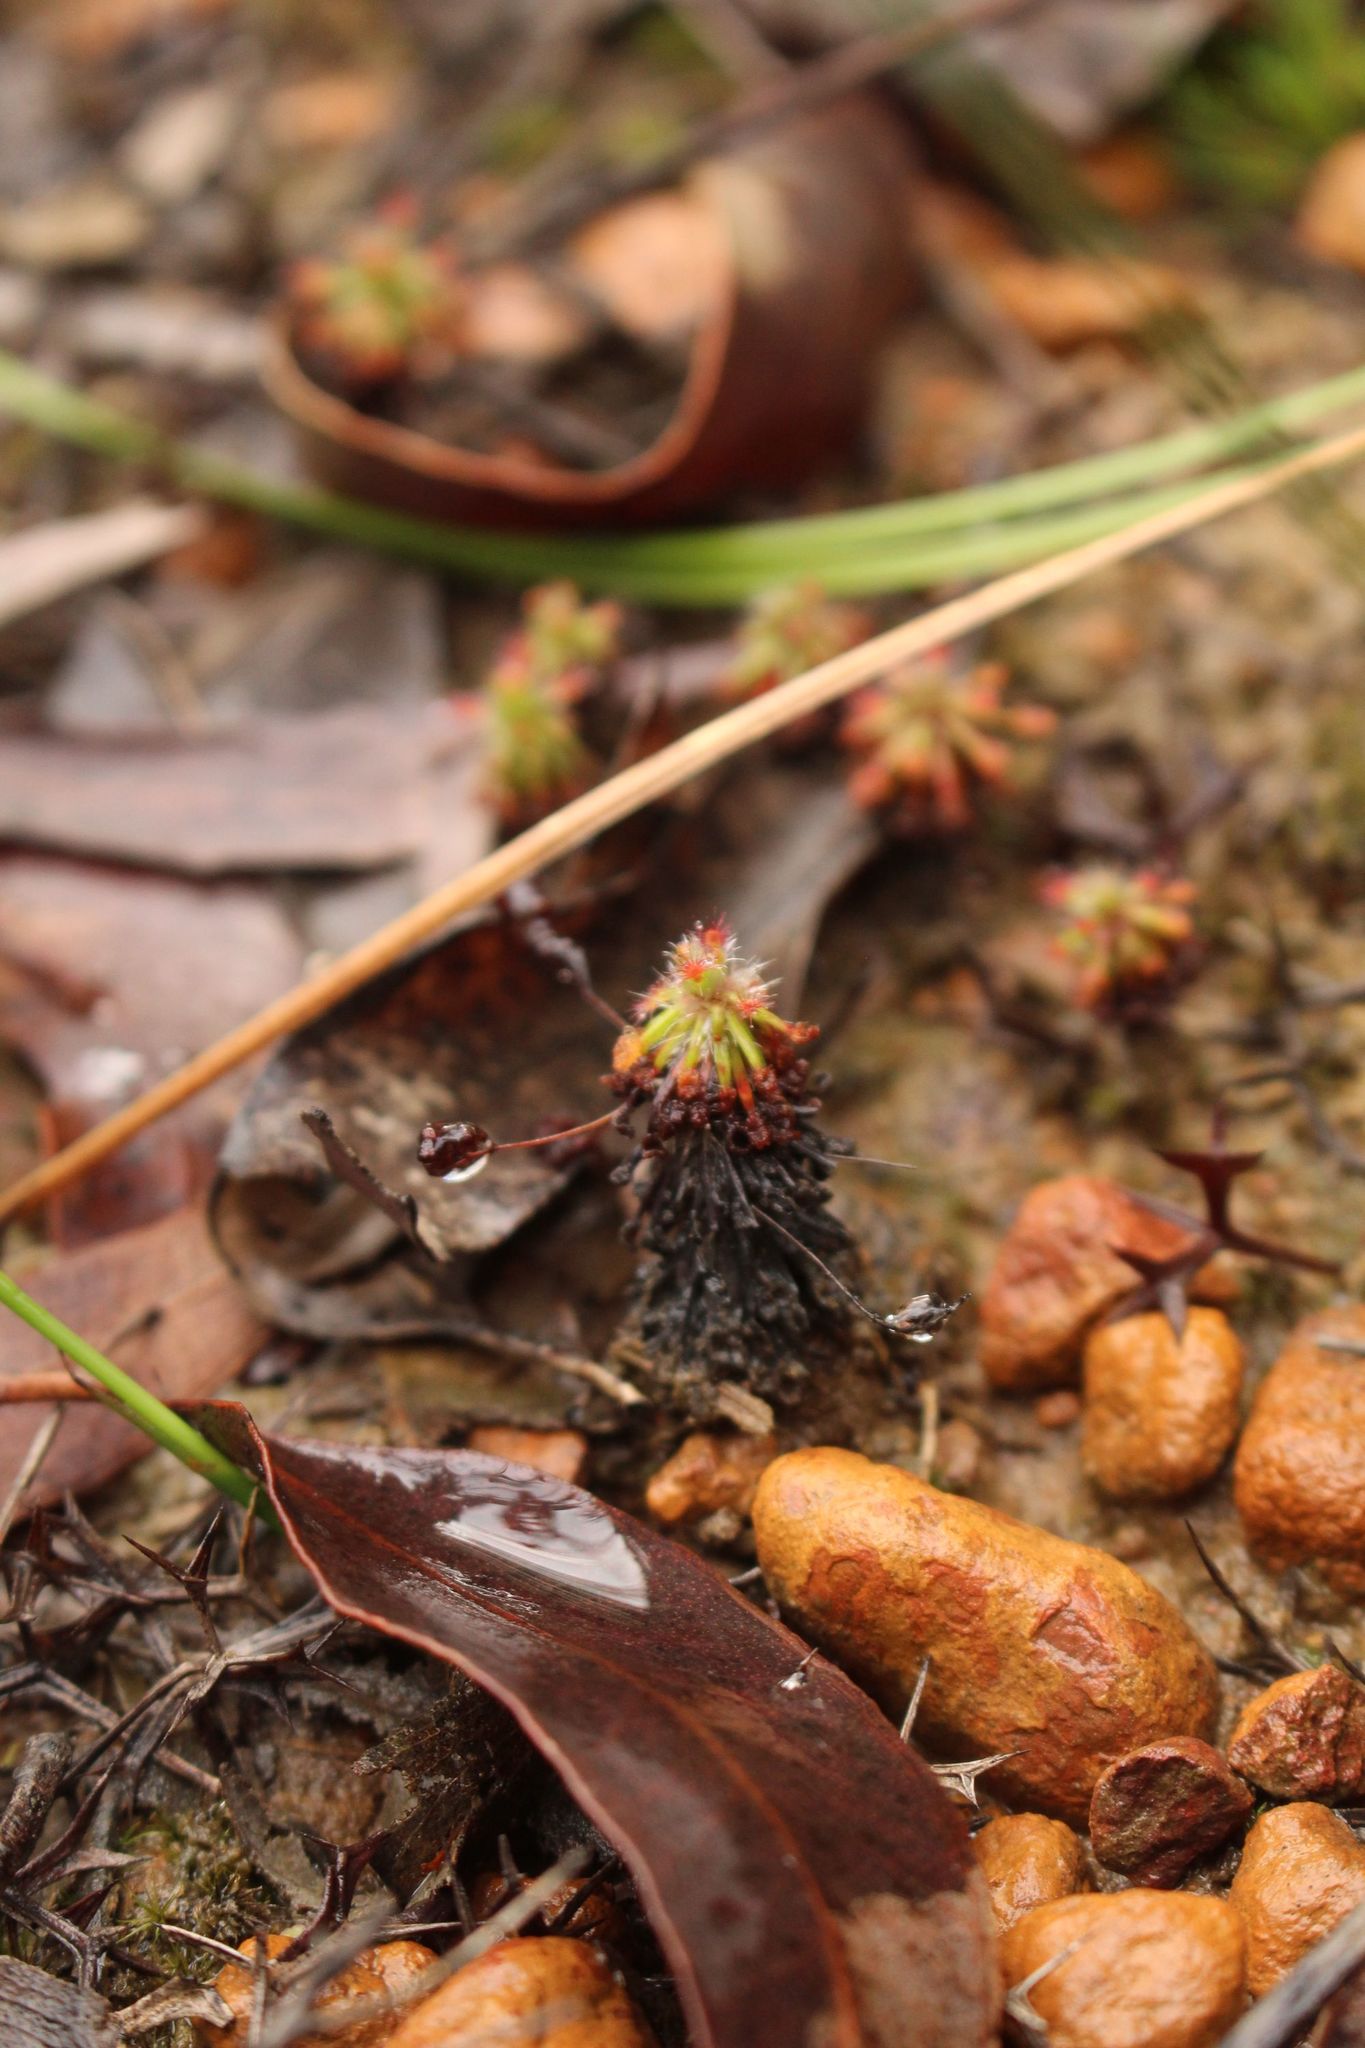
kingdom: Plantae
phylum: Tracheophyta
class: Magnoliopsida
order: Caryophyllales
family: Droseraceae
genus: Drosera
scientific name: Drosera paleacea
